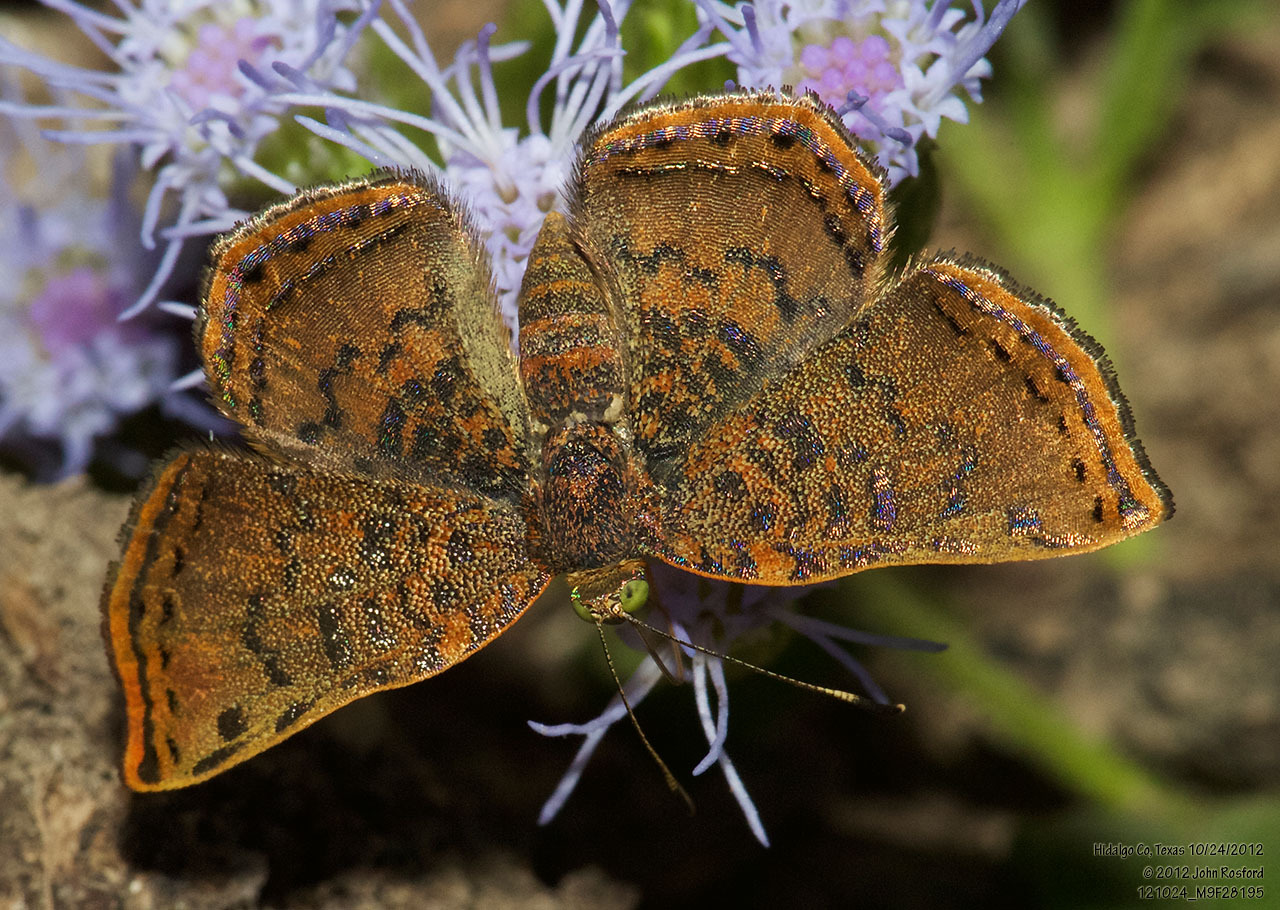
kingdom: Animalia
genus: Caria
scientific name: Caria ino
